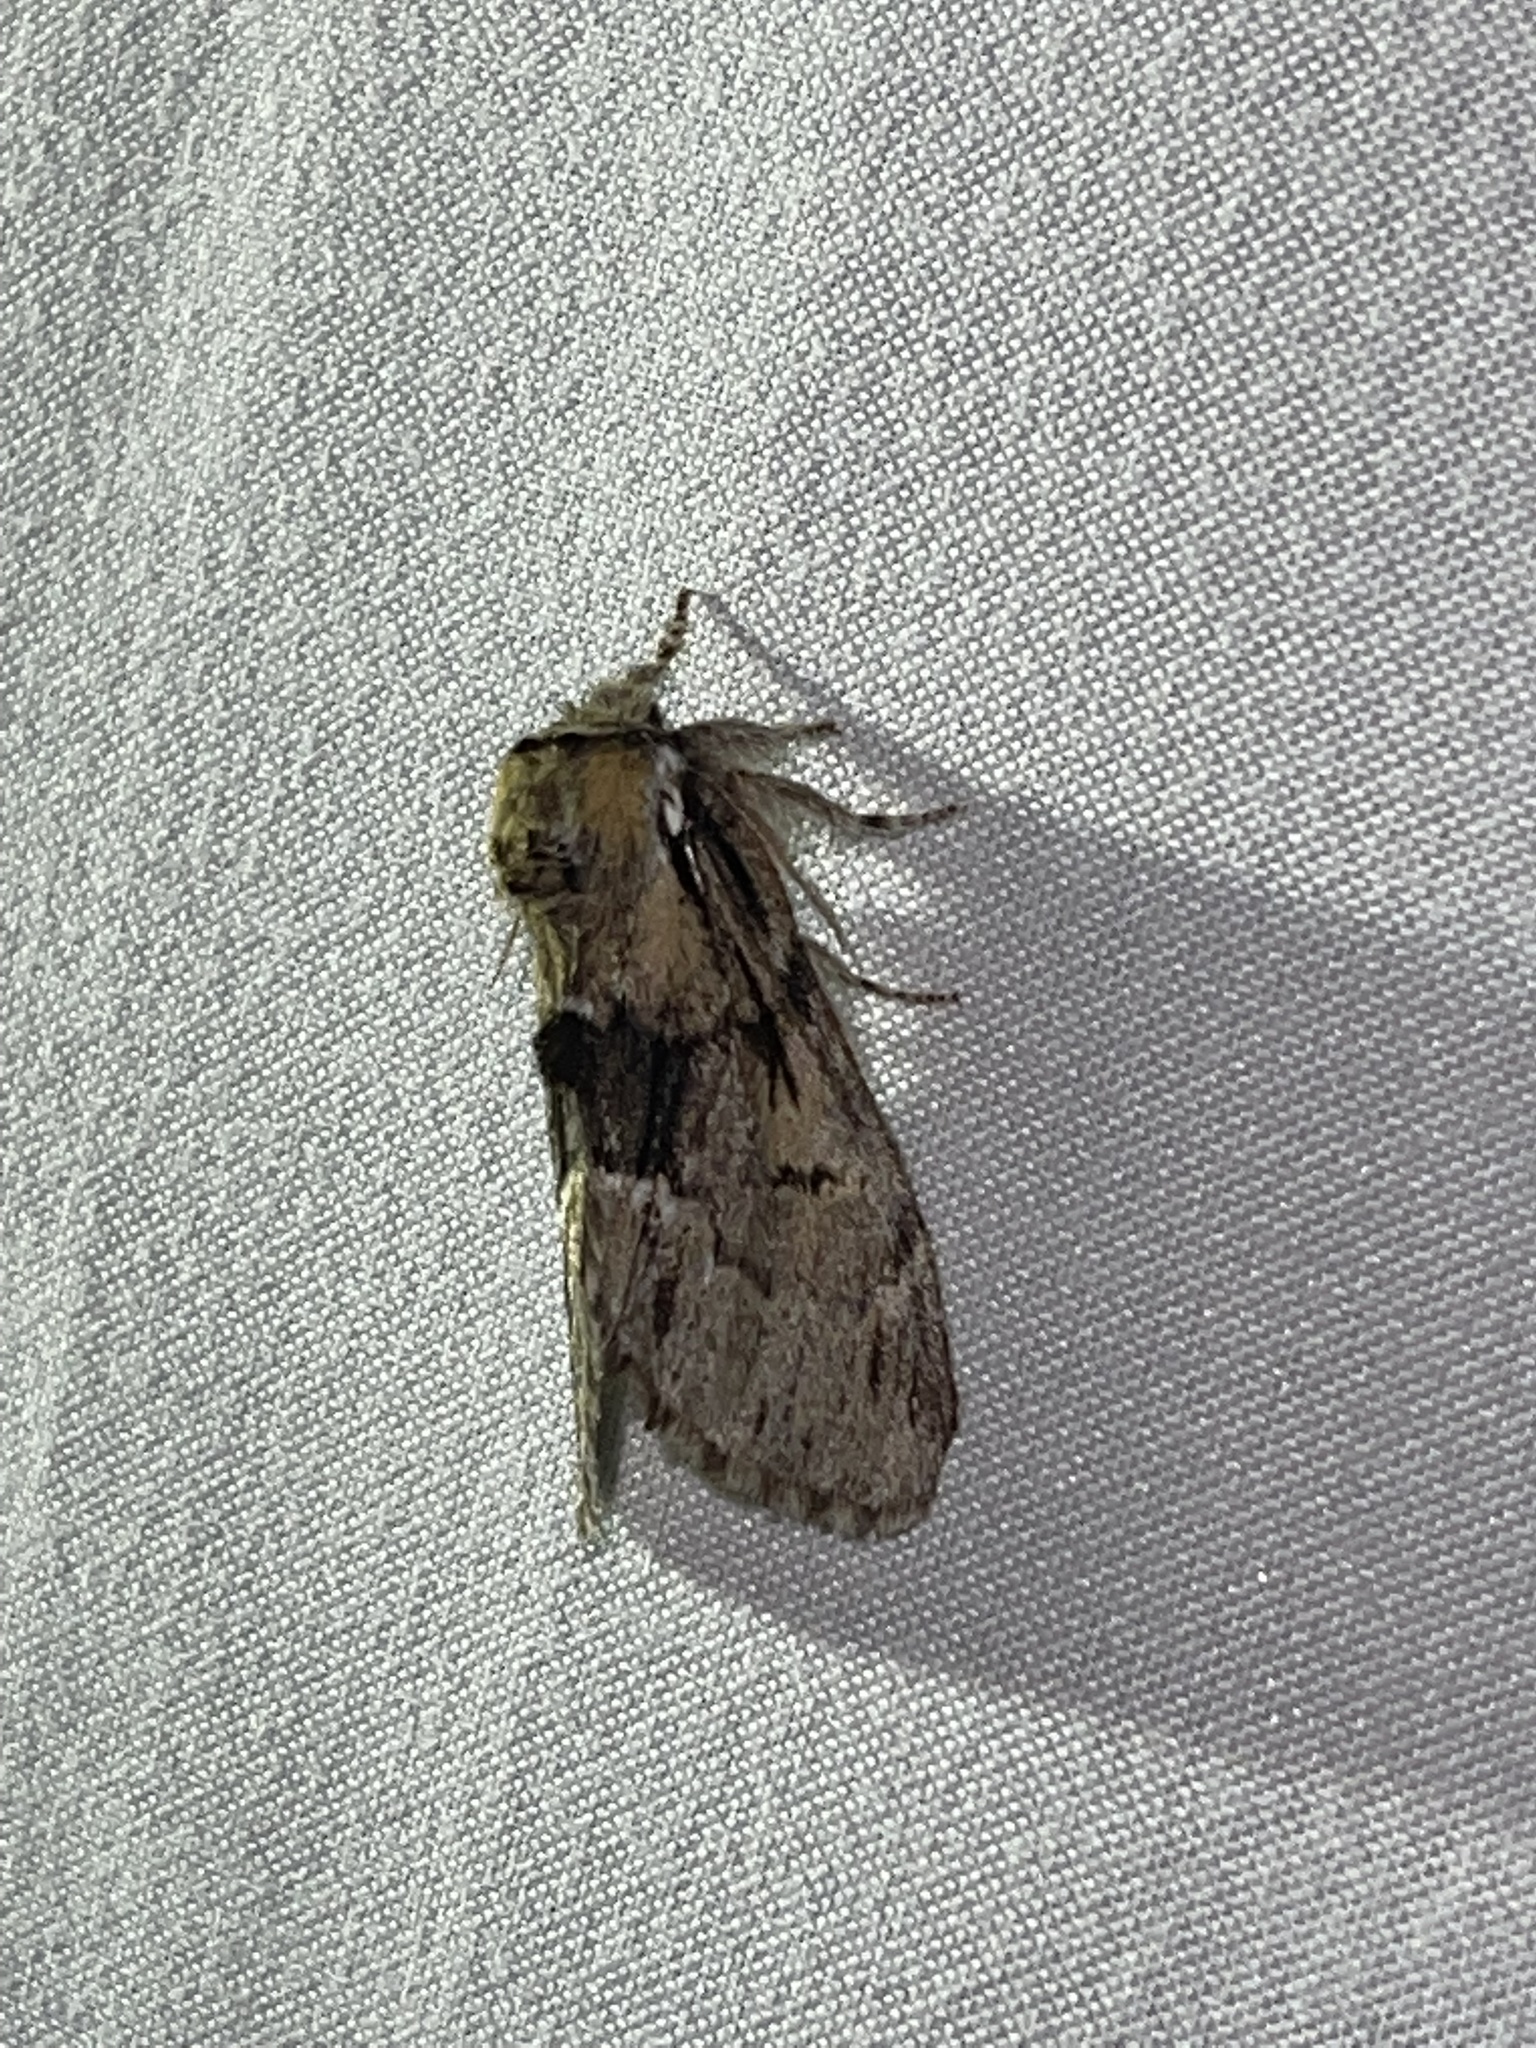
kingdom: Animalia
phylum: Arthropoda
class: Insecta
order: Lepidoptera
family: Notodontidae
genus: Paraeschra
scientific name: Paraeschra georgica
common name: Georgian prominent
